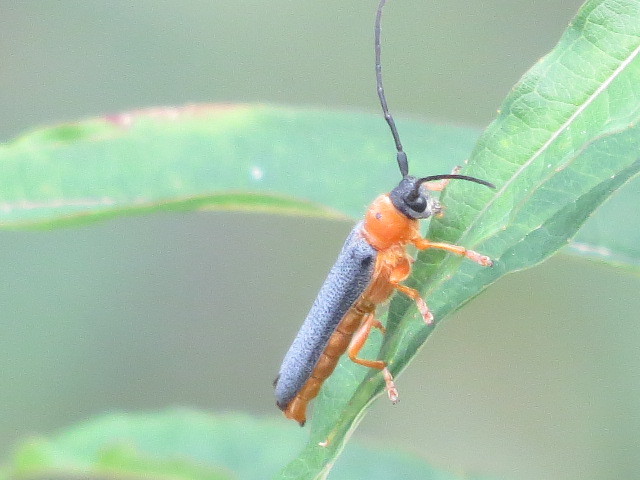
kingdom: Animalia
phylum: Arthropoda
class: Insecta
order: Coleoptera
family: Cerambycidae
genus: Oberea
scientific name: Oberea oculata
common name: Eyed longhorn beetle
